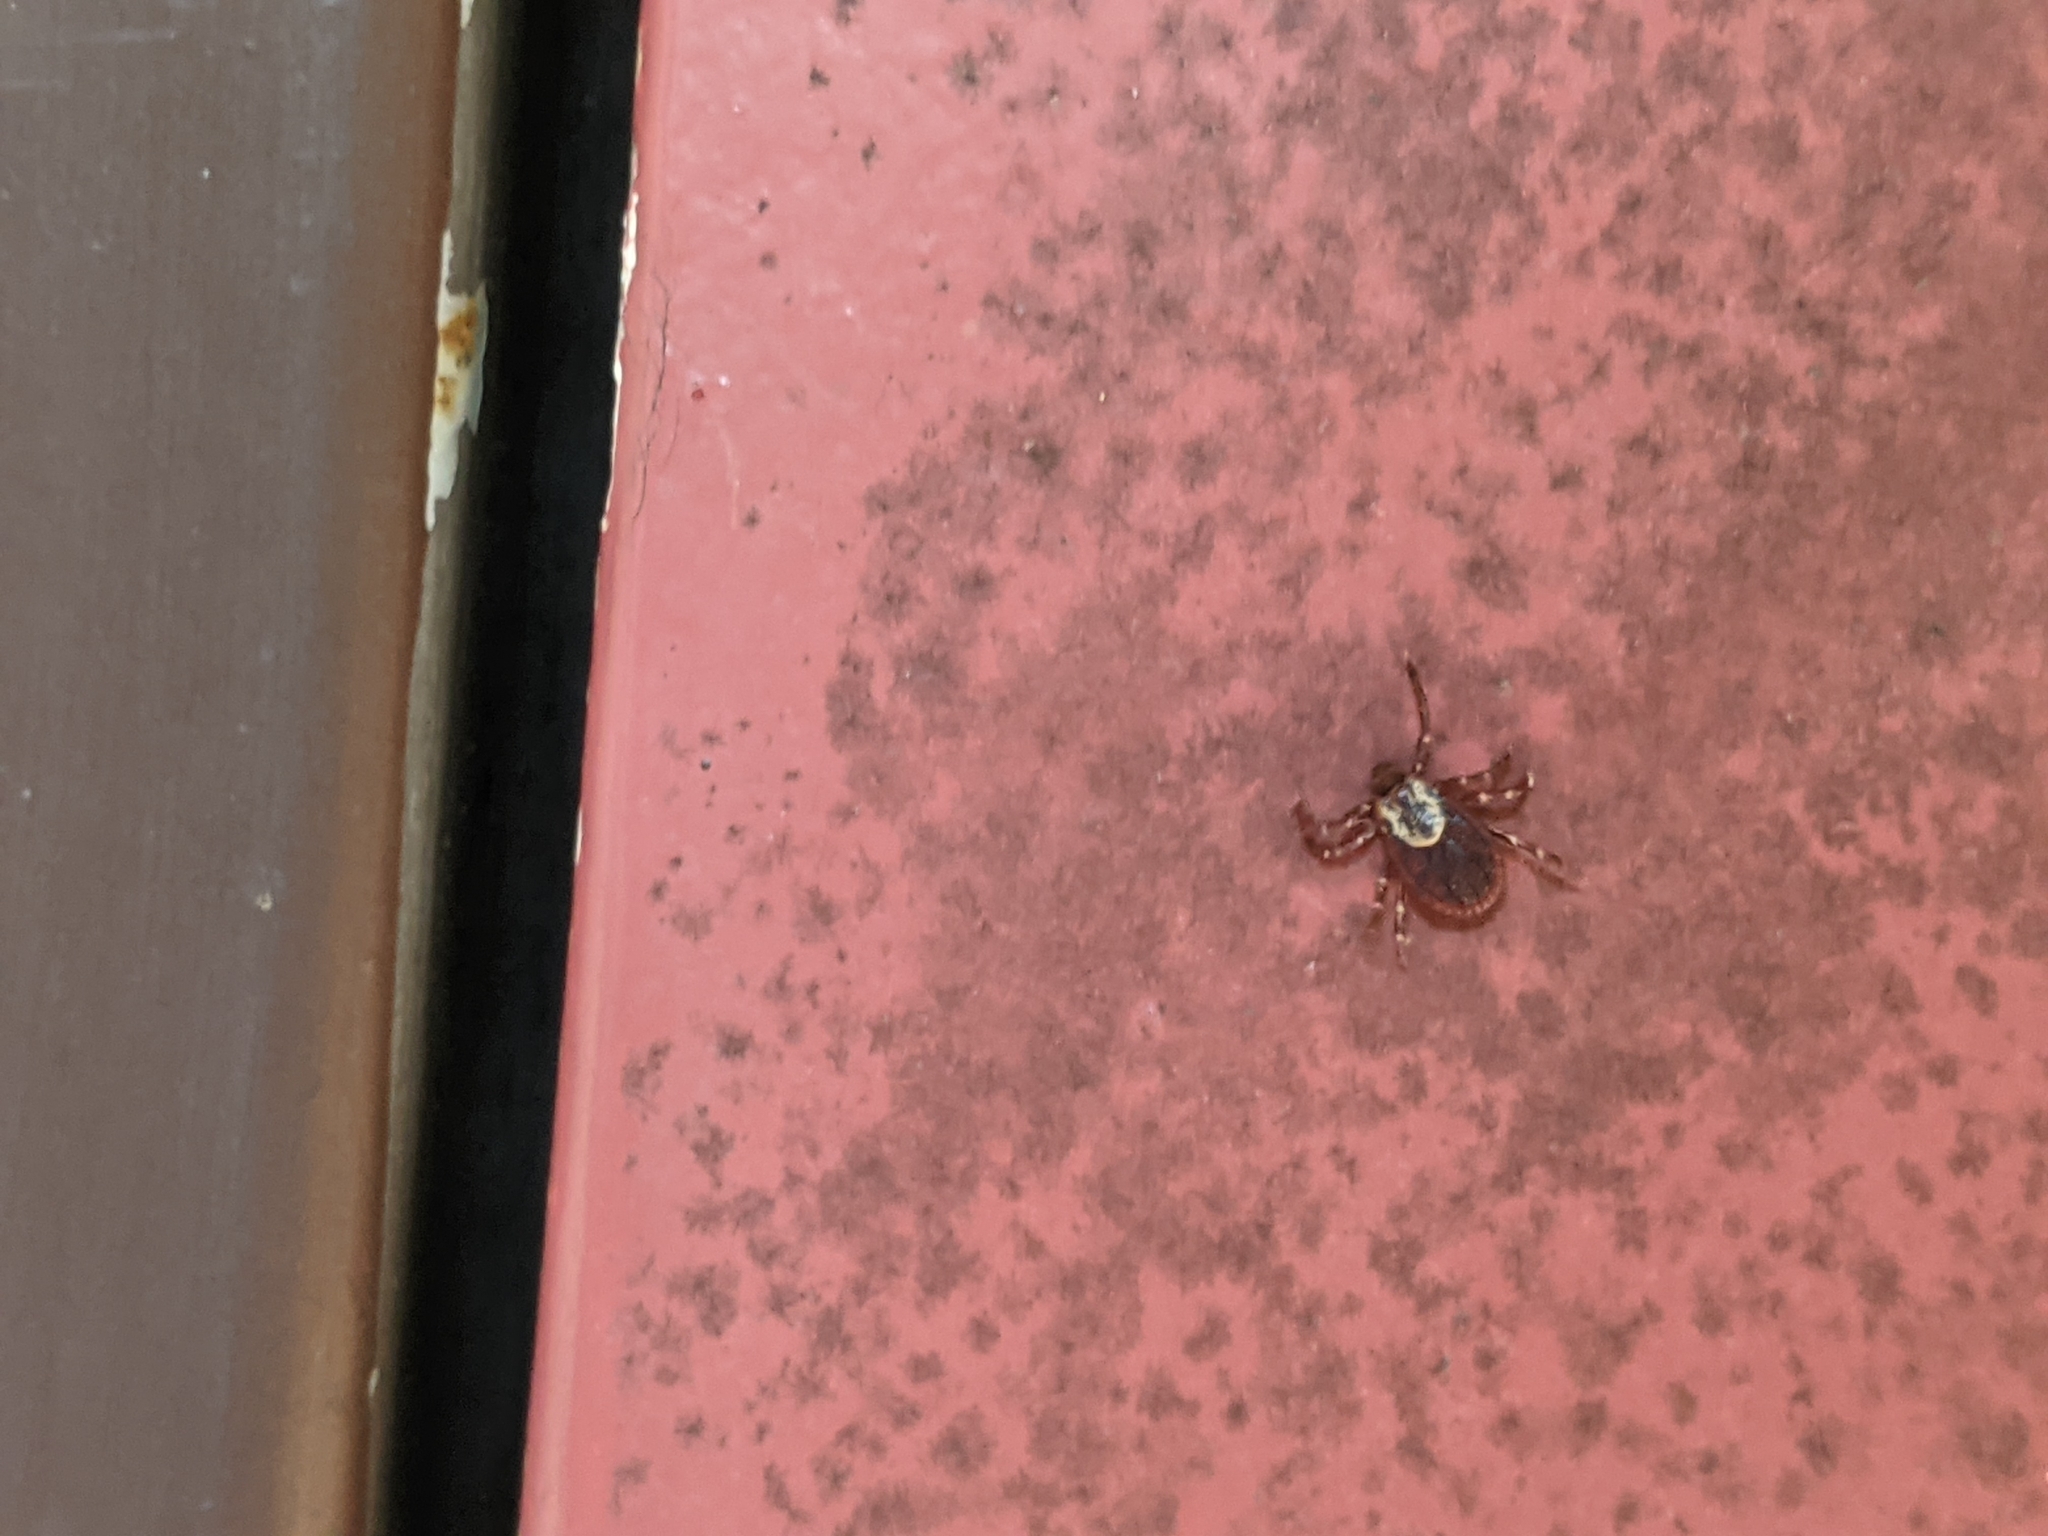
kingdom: Animalia
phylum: Arthropoda
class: Arachnida
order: Ixodida
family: Ixodidae
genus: Dermacentor
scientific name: Dermacentor variabilis
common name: American dog tick
